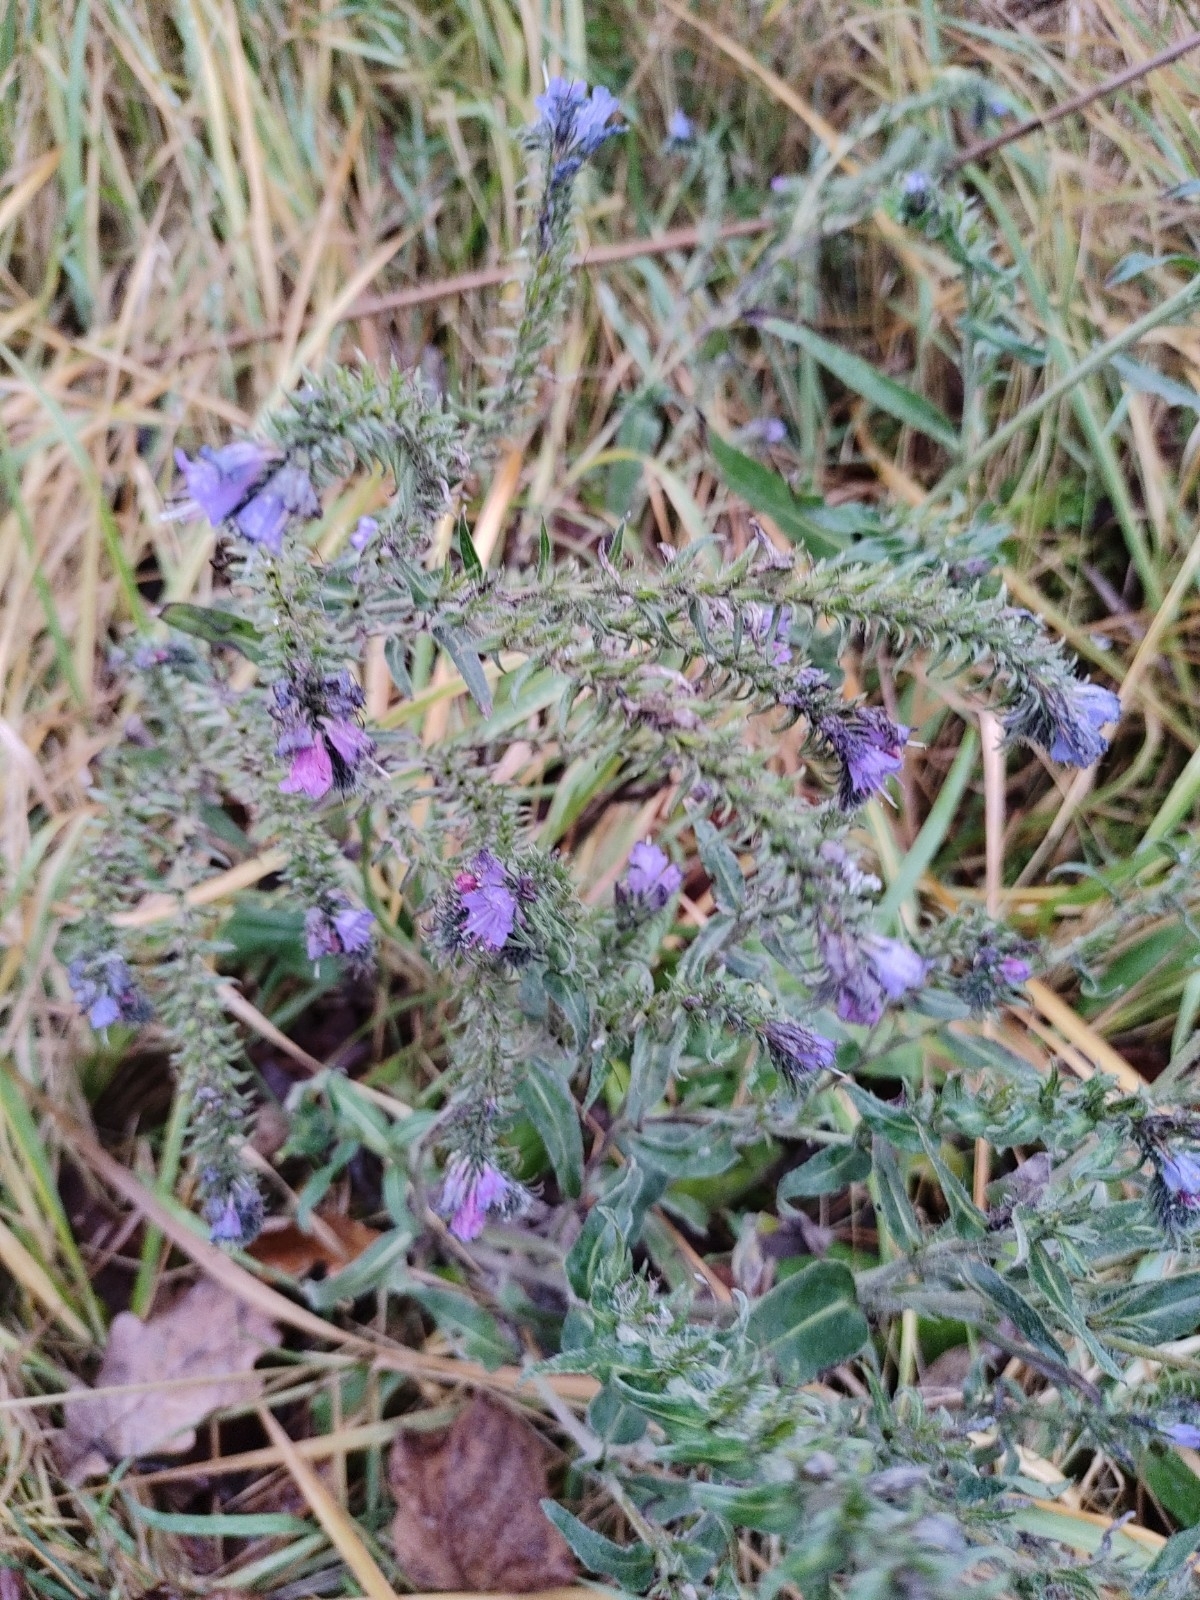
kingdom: Plantae
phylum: Tracheophyta
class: Magnoliopsida
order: Boraginales
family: Boraginaceae
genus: Echium
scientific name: Echium vulgare
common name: Common viper's bugloss
